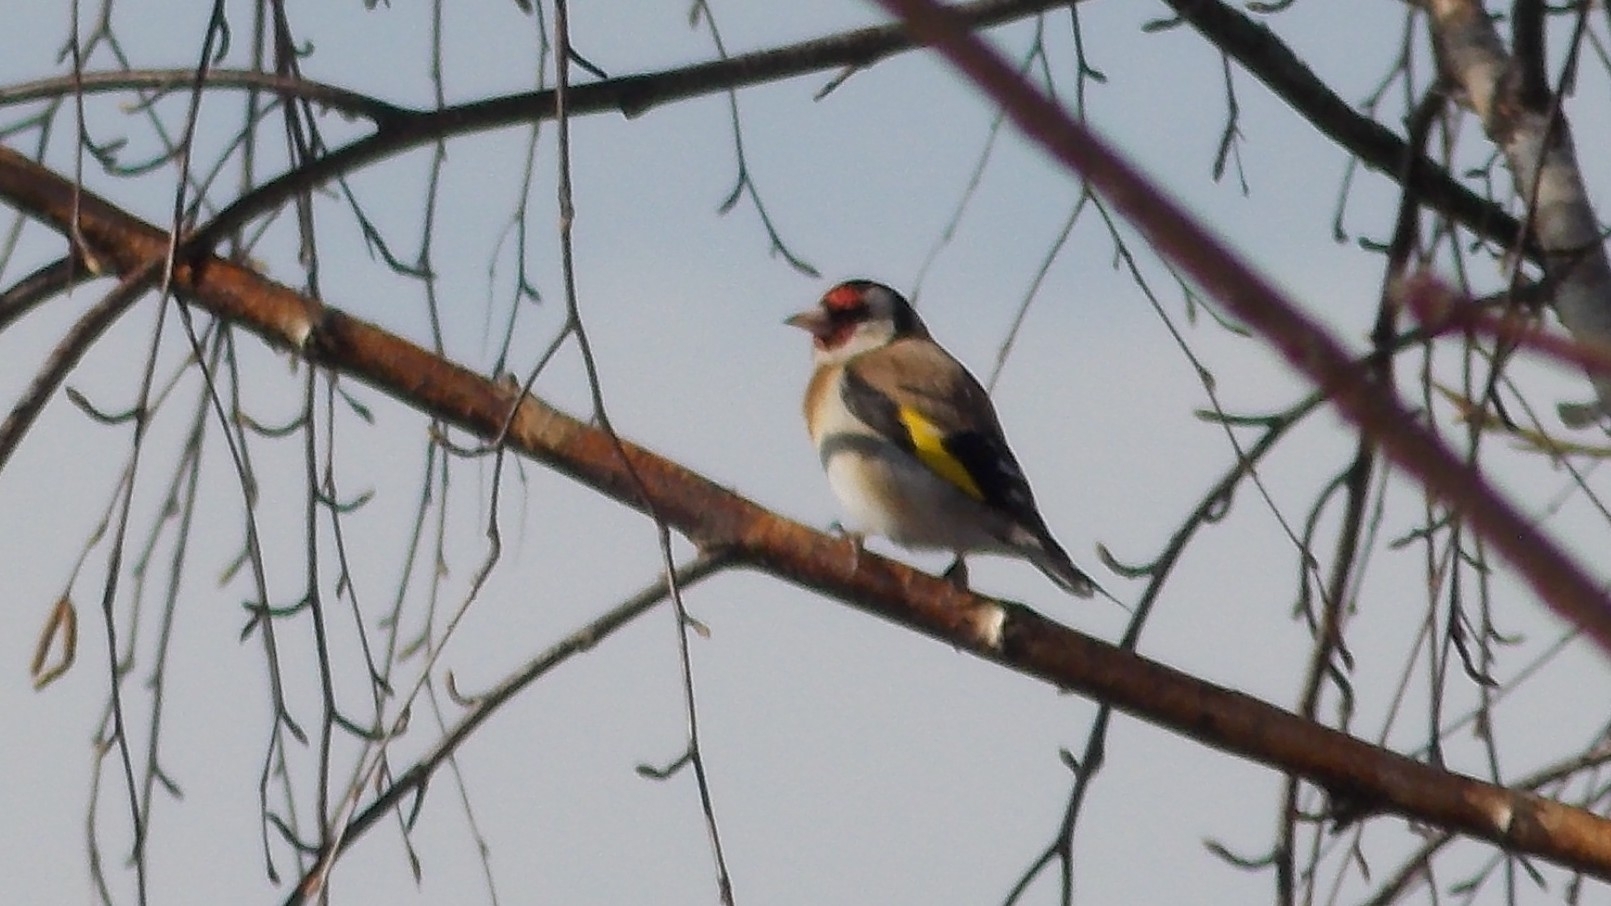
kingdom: Animalia
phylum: Chordata
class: Aves
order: Passeriformes
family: Fringillidae
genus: Carduelis
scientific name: Carduelis carduelis
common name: European goldfinch
